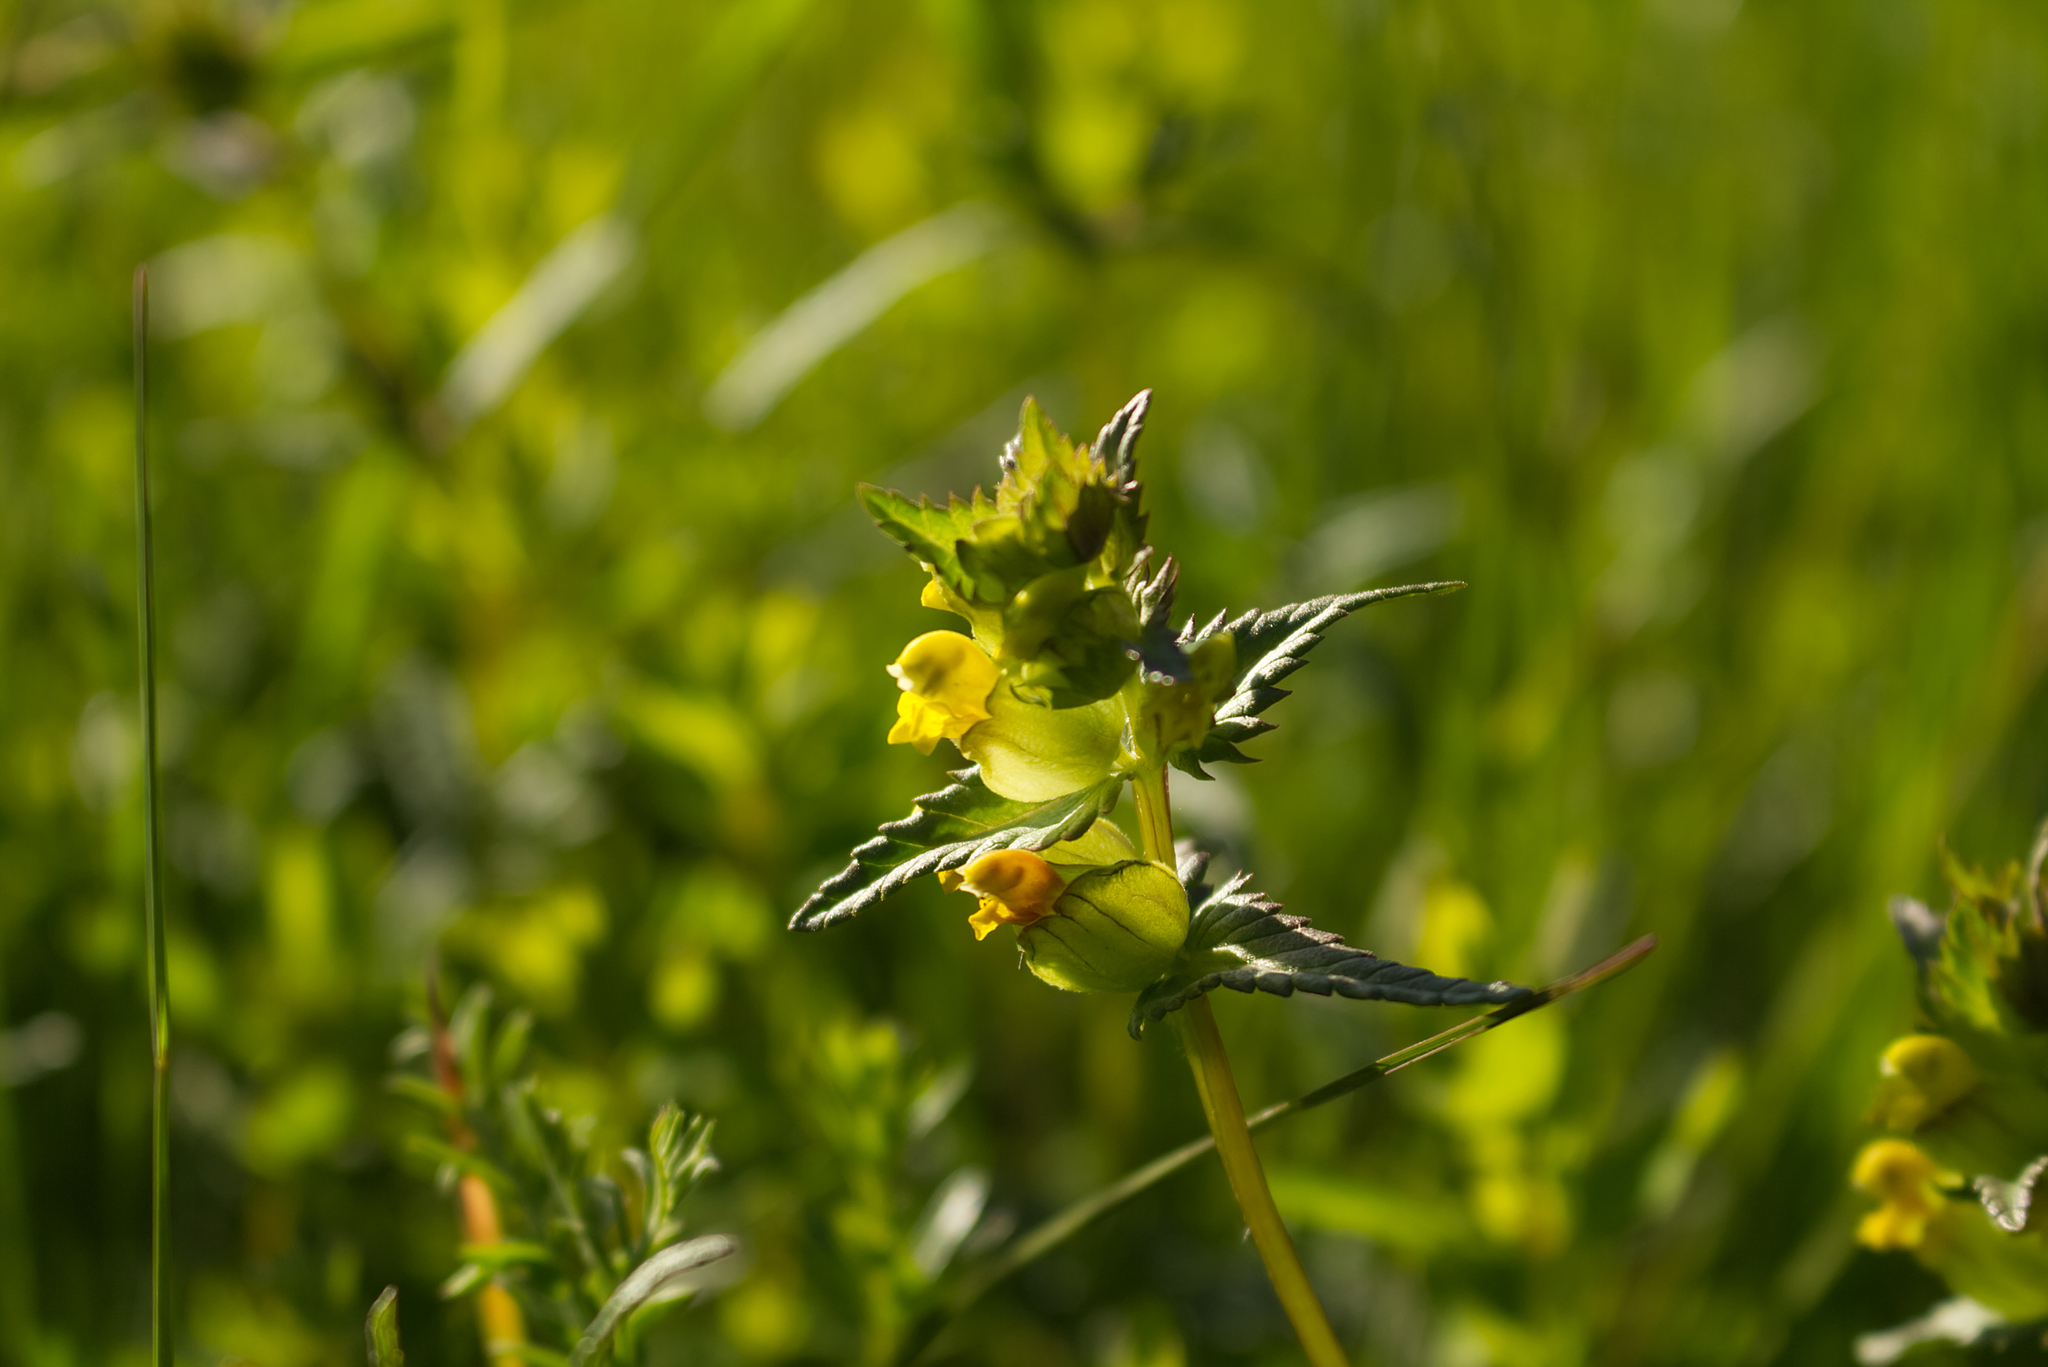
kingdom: Plantae
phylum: Tracheophyta
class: Magnoliopsida
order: Lamiales
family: Orobanchaceae
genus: Rhinanthus
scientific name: Rhinanthus minor
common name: Yellow-rattle
